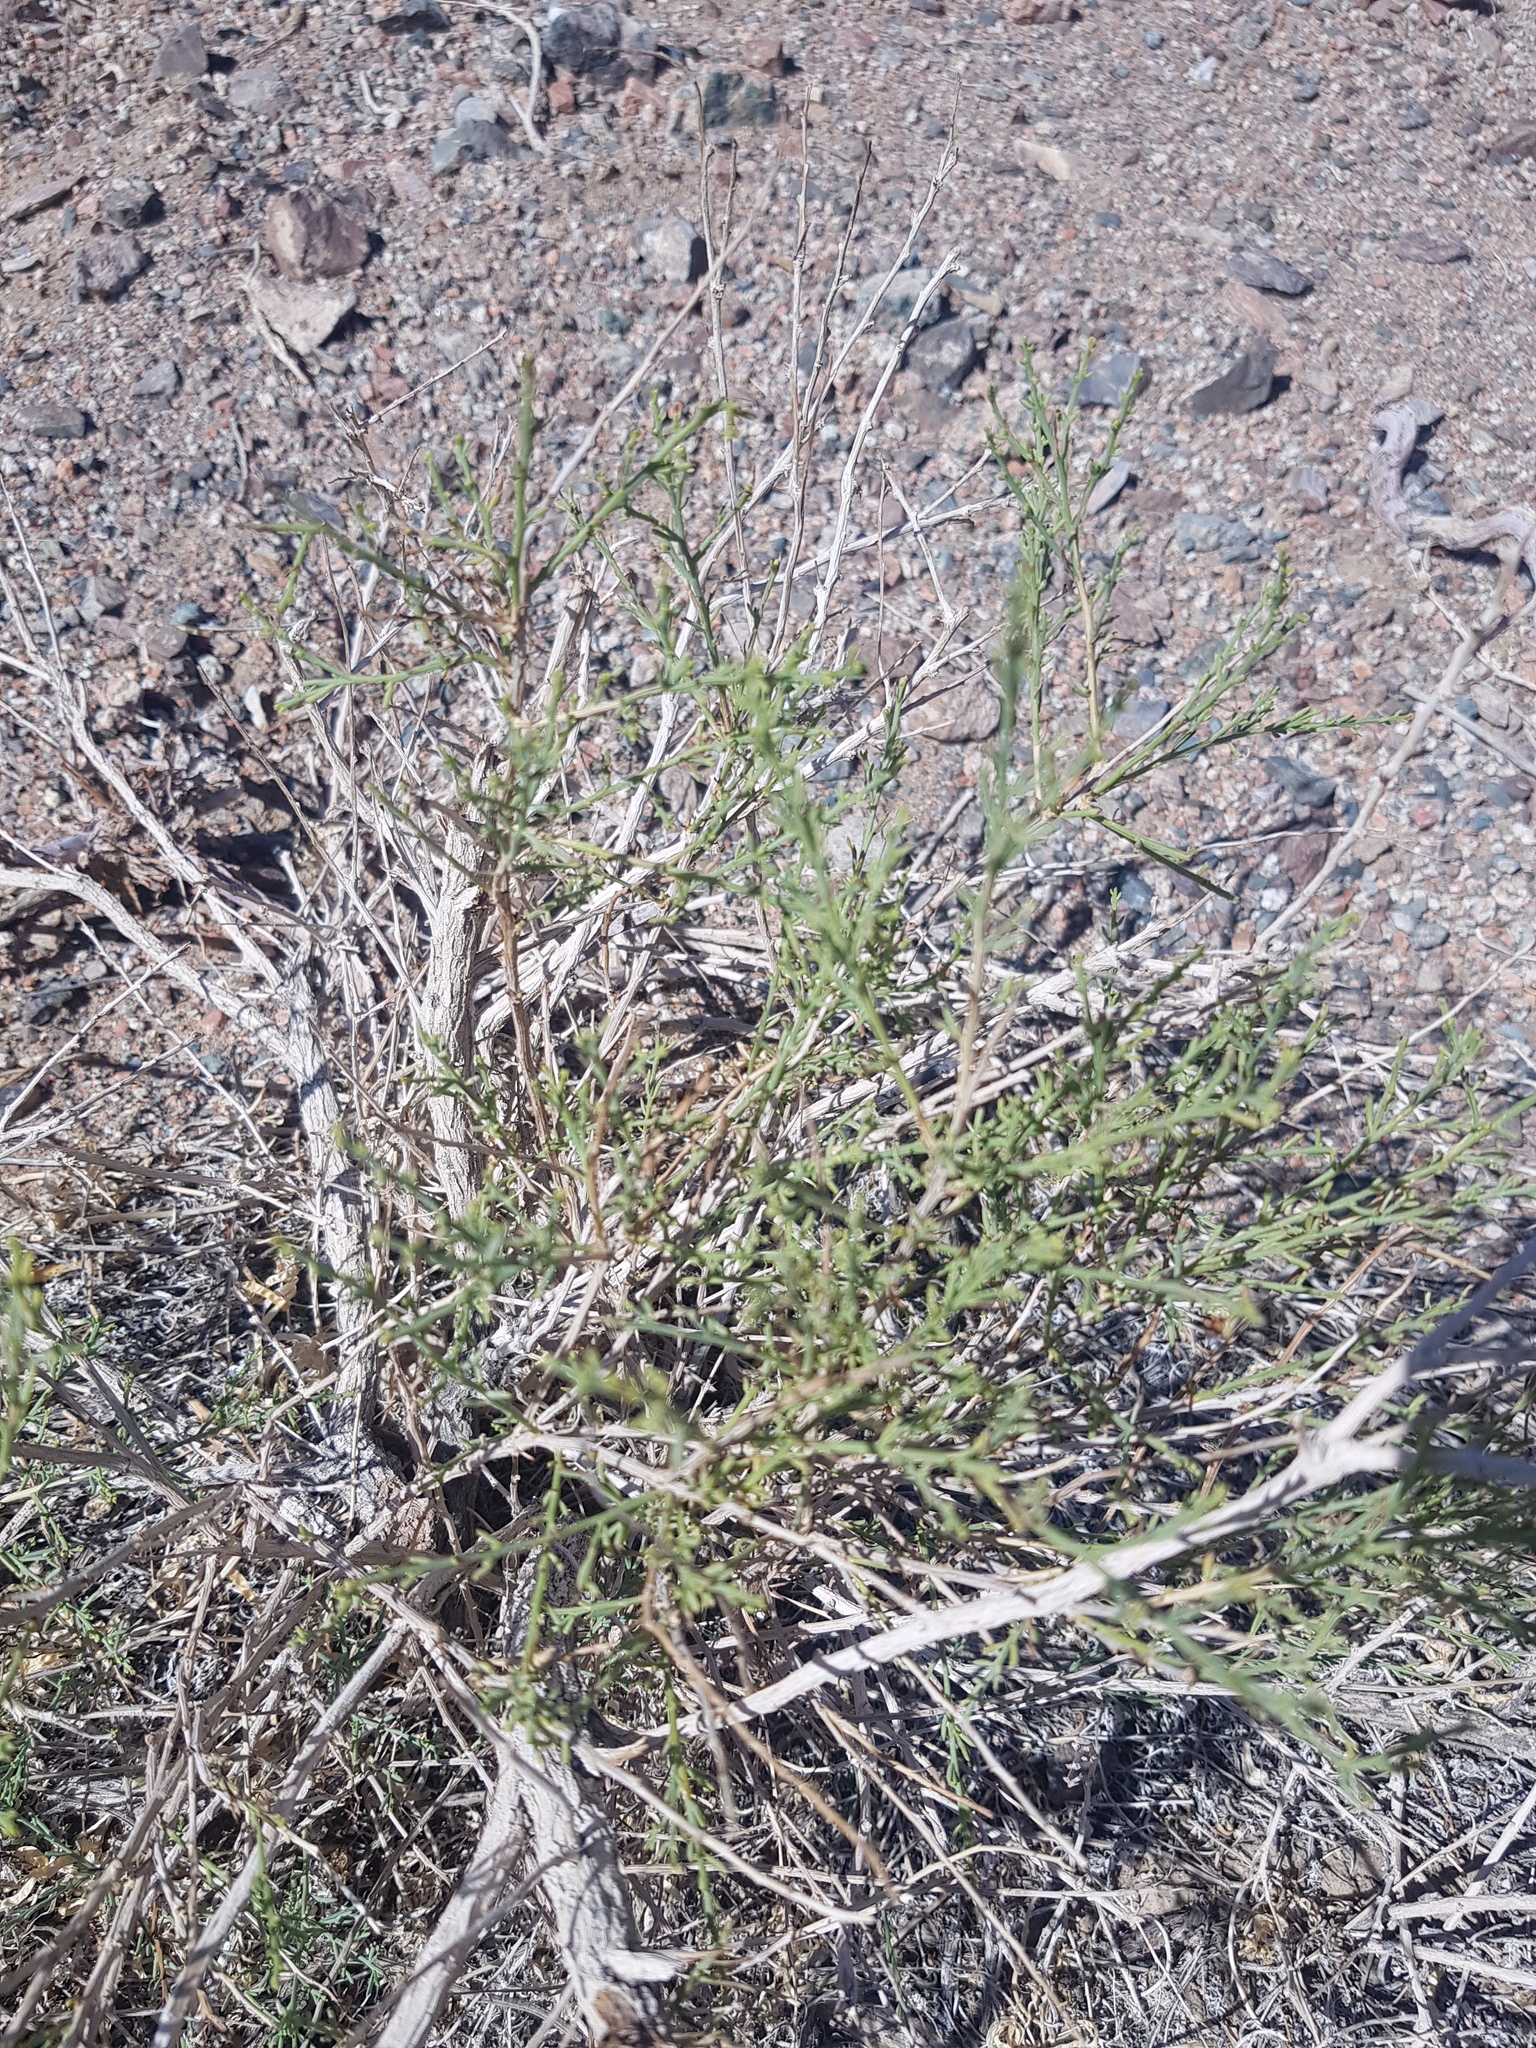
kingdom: Plantae
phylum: Tracheophyta
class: Magnoliopsida
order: Caryophyllales
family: Amaranthaceae
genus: Sympegma
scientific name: Sympegma regelii
